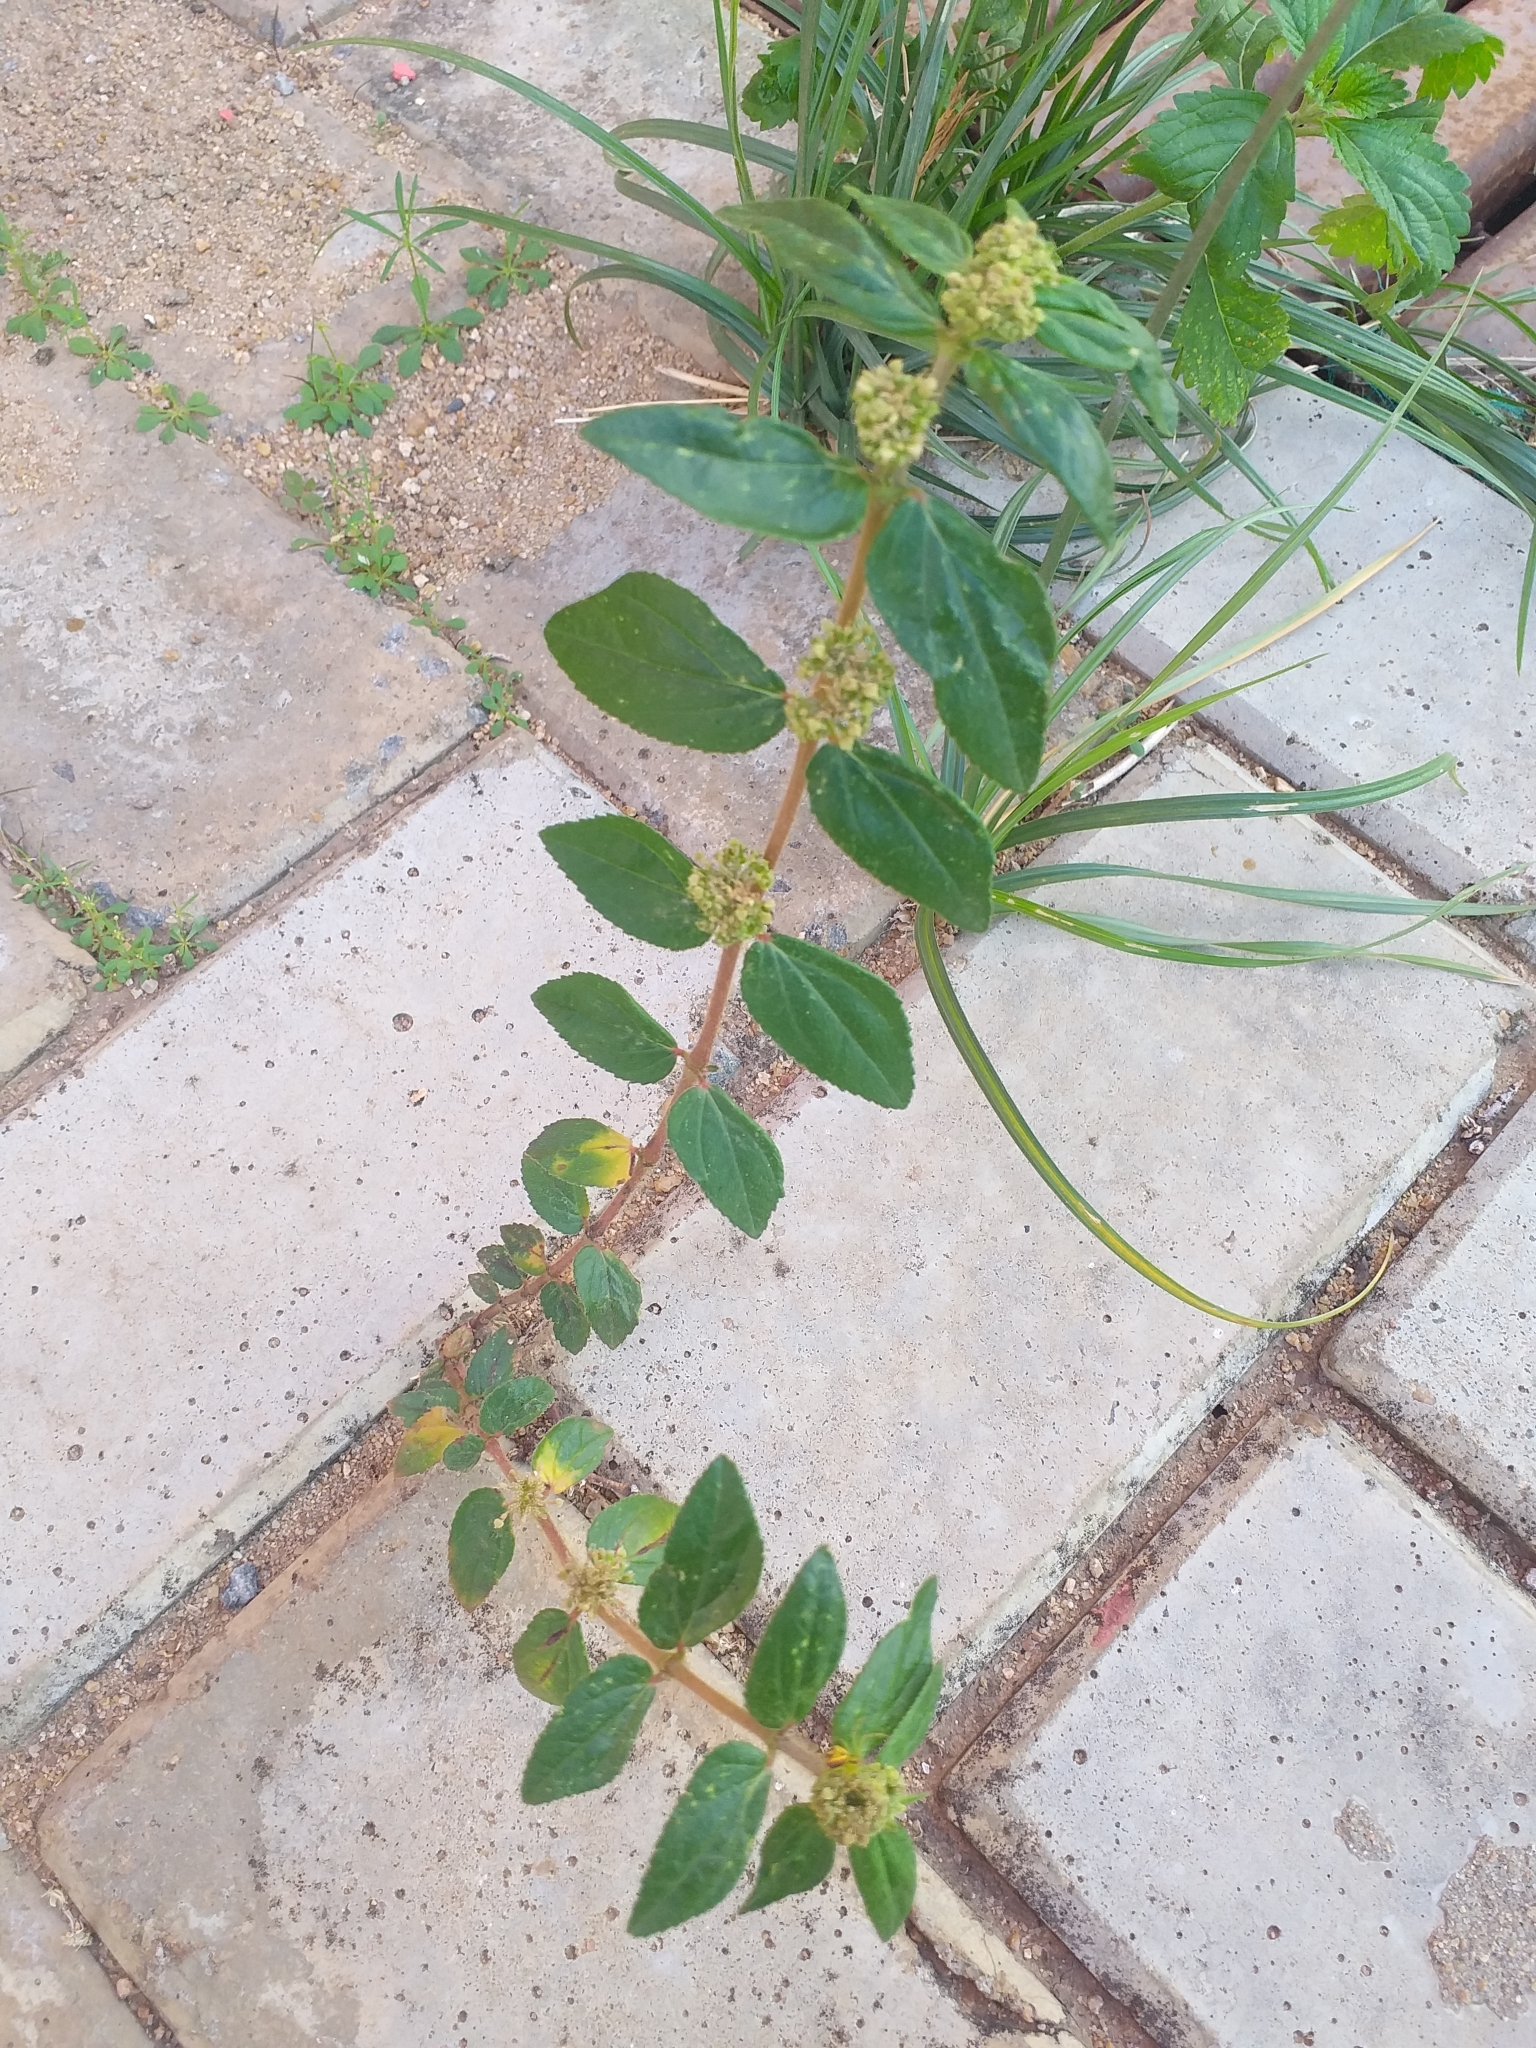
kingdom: Plantae
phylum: Tracheophyta
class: Magnoliopsida
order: Malpighiales
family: Euphorbiaceae
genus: Euphorbia
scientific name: Euphorbia hirta
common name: Pillpod sandmat
